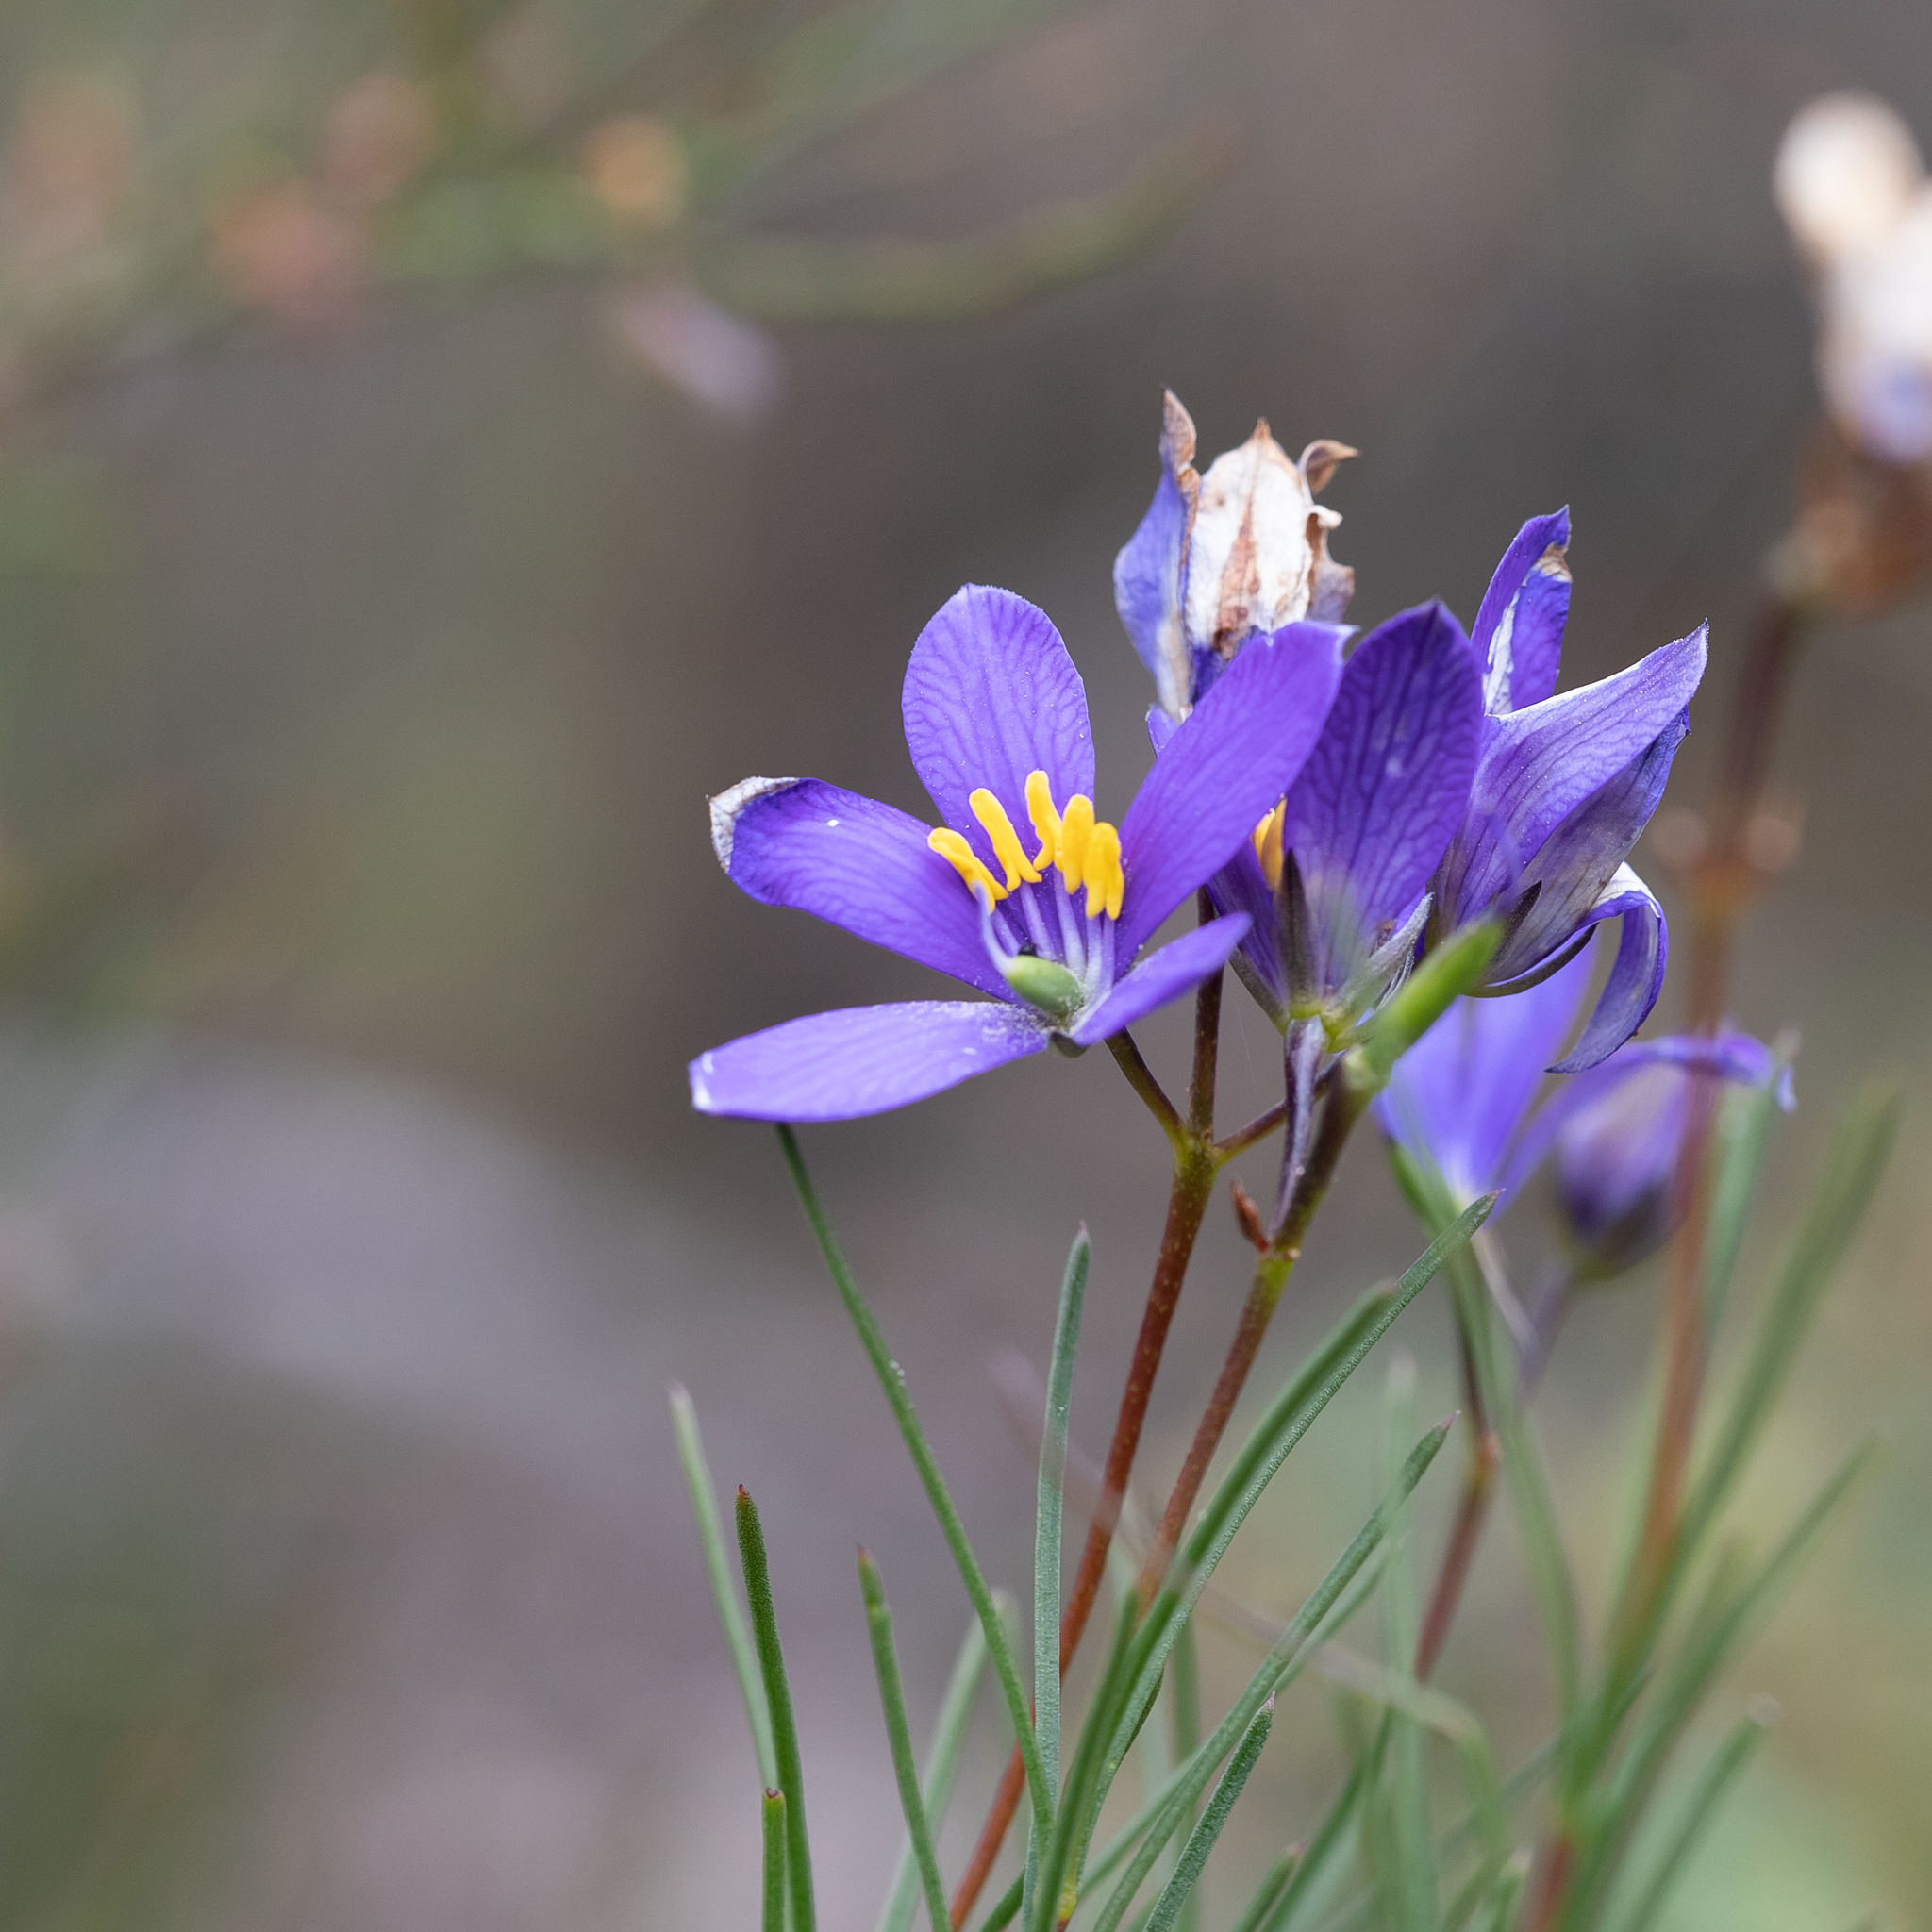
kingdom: Plantae
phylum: Tracheophyta
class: Magnoliopsida
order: Apiales
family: Pittosporaceae
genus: Cheiranthera
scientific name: Cheiranthera alternifolia
